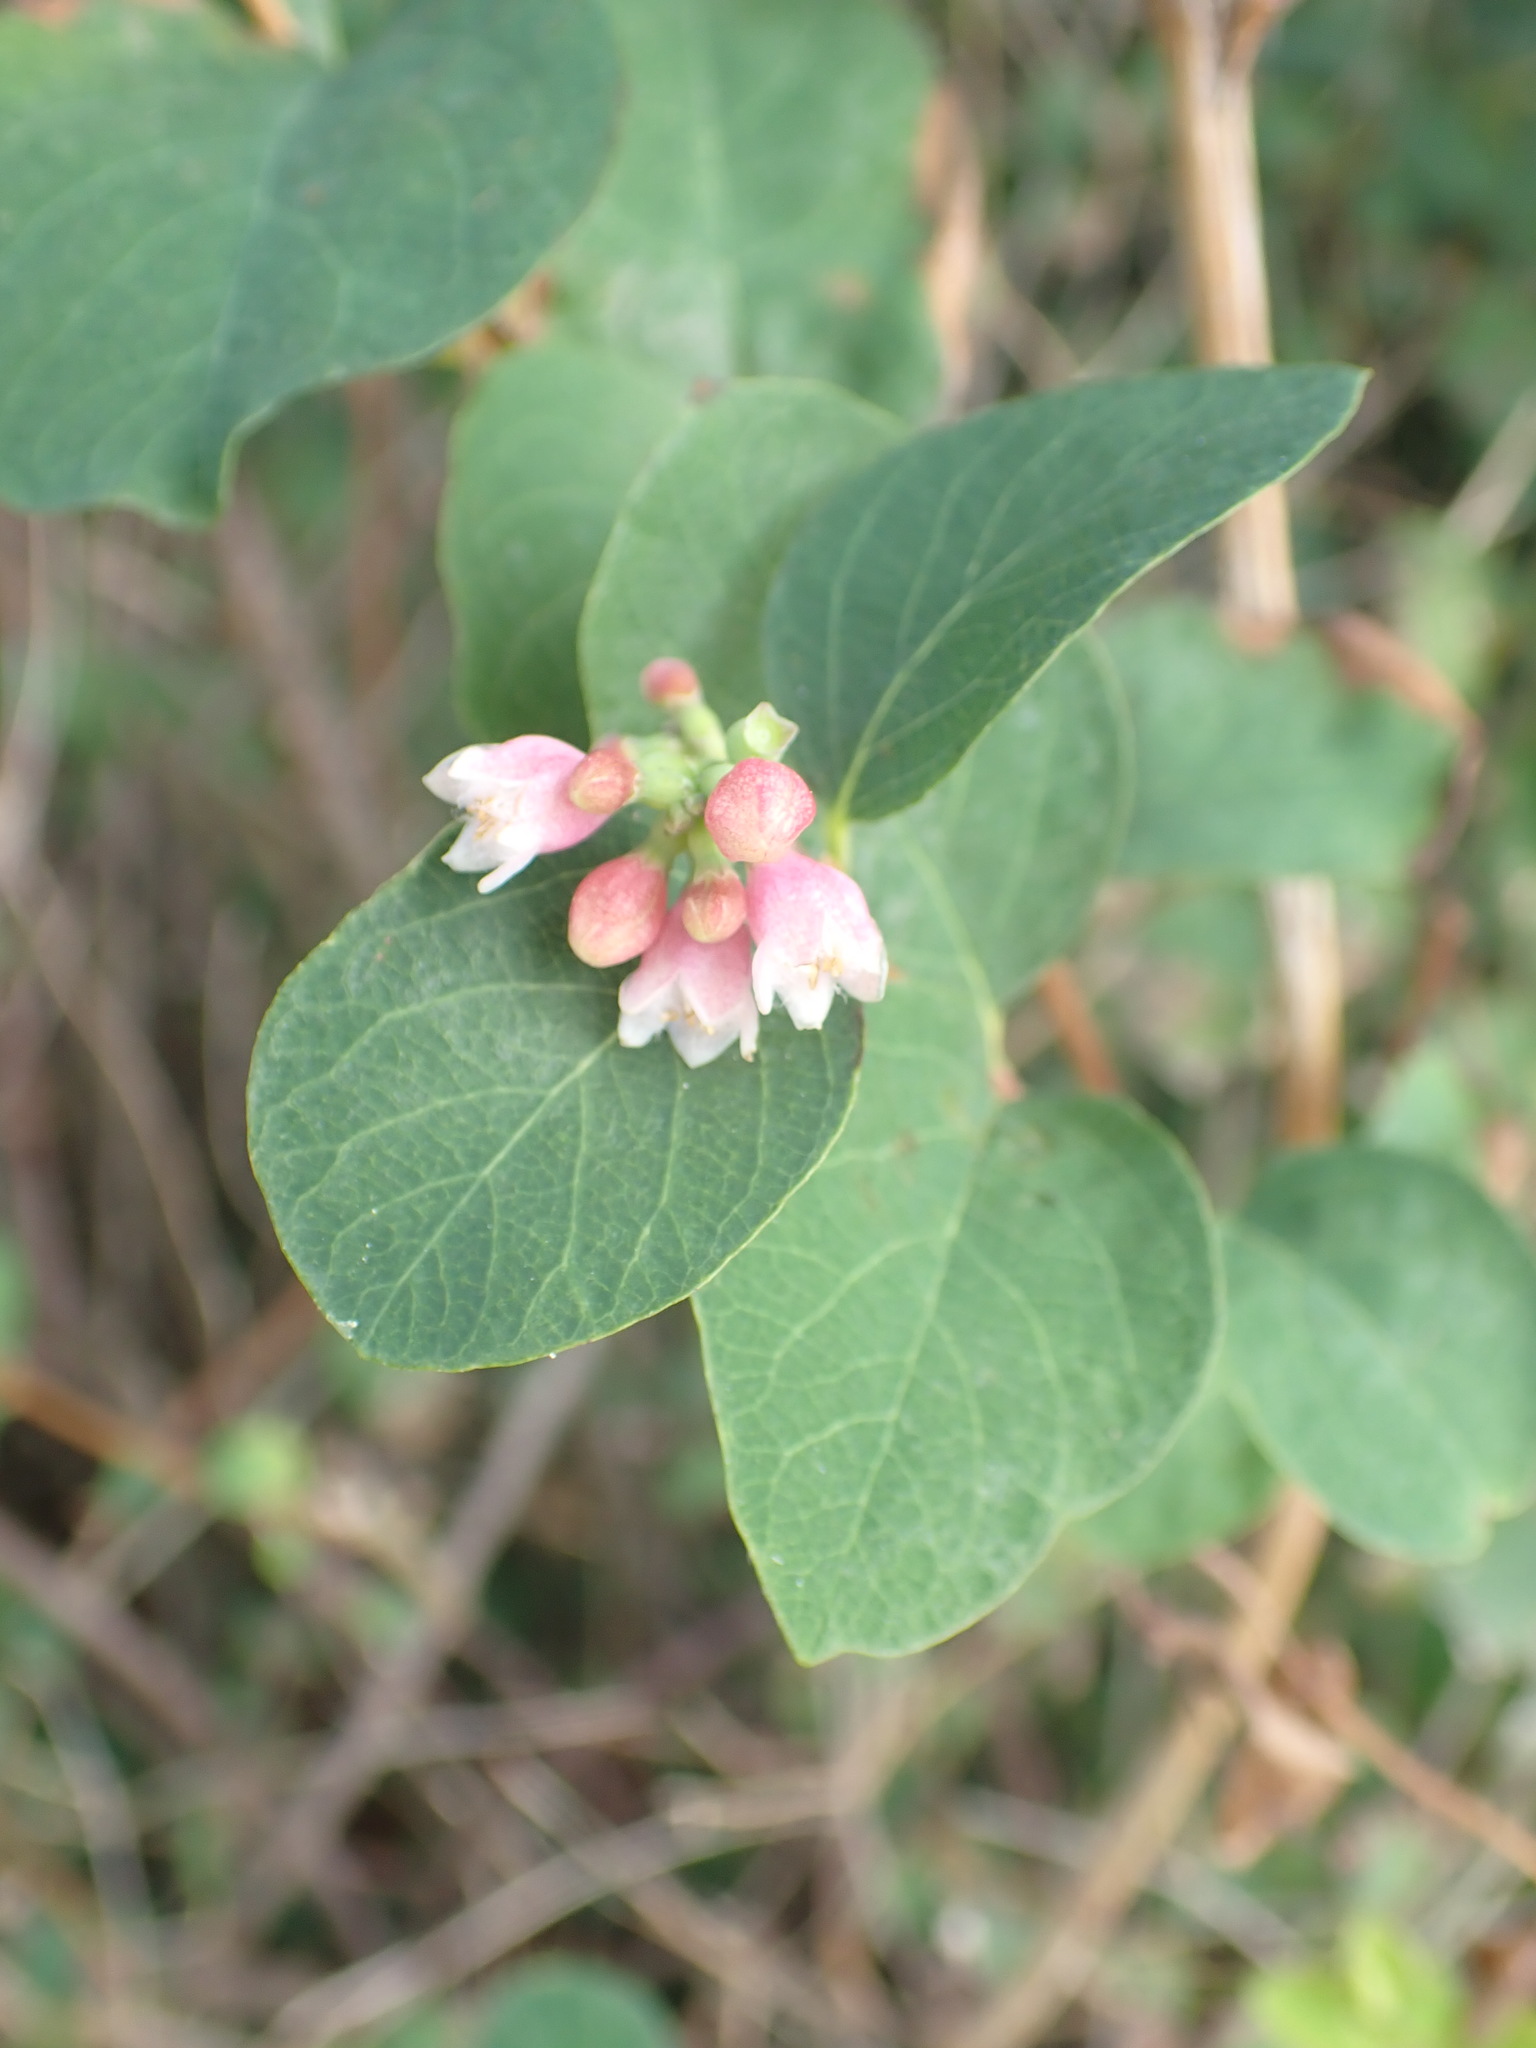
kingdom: Plantae
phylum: Tracheophyta
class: Magnoliopsida
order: Dipsacales
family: Caprifoliaceae
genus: Symphoricarpos
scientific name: Symphoricarpos albus
